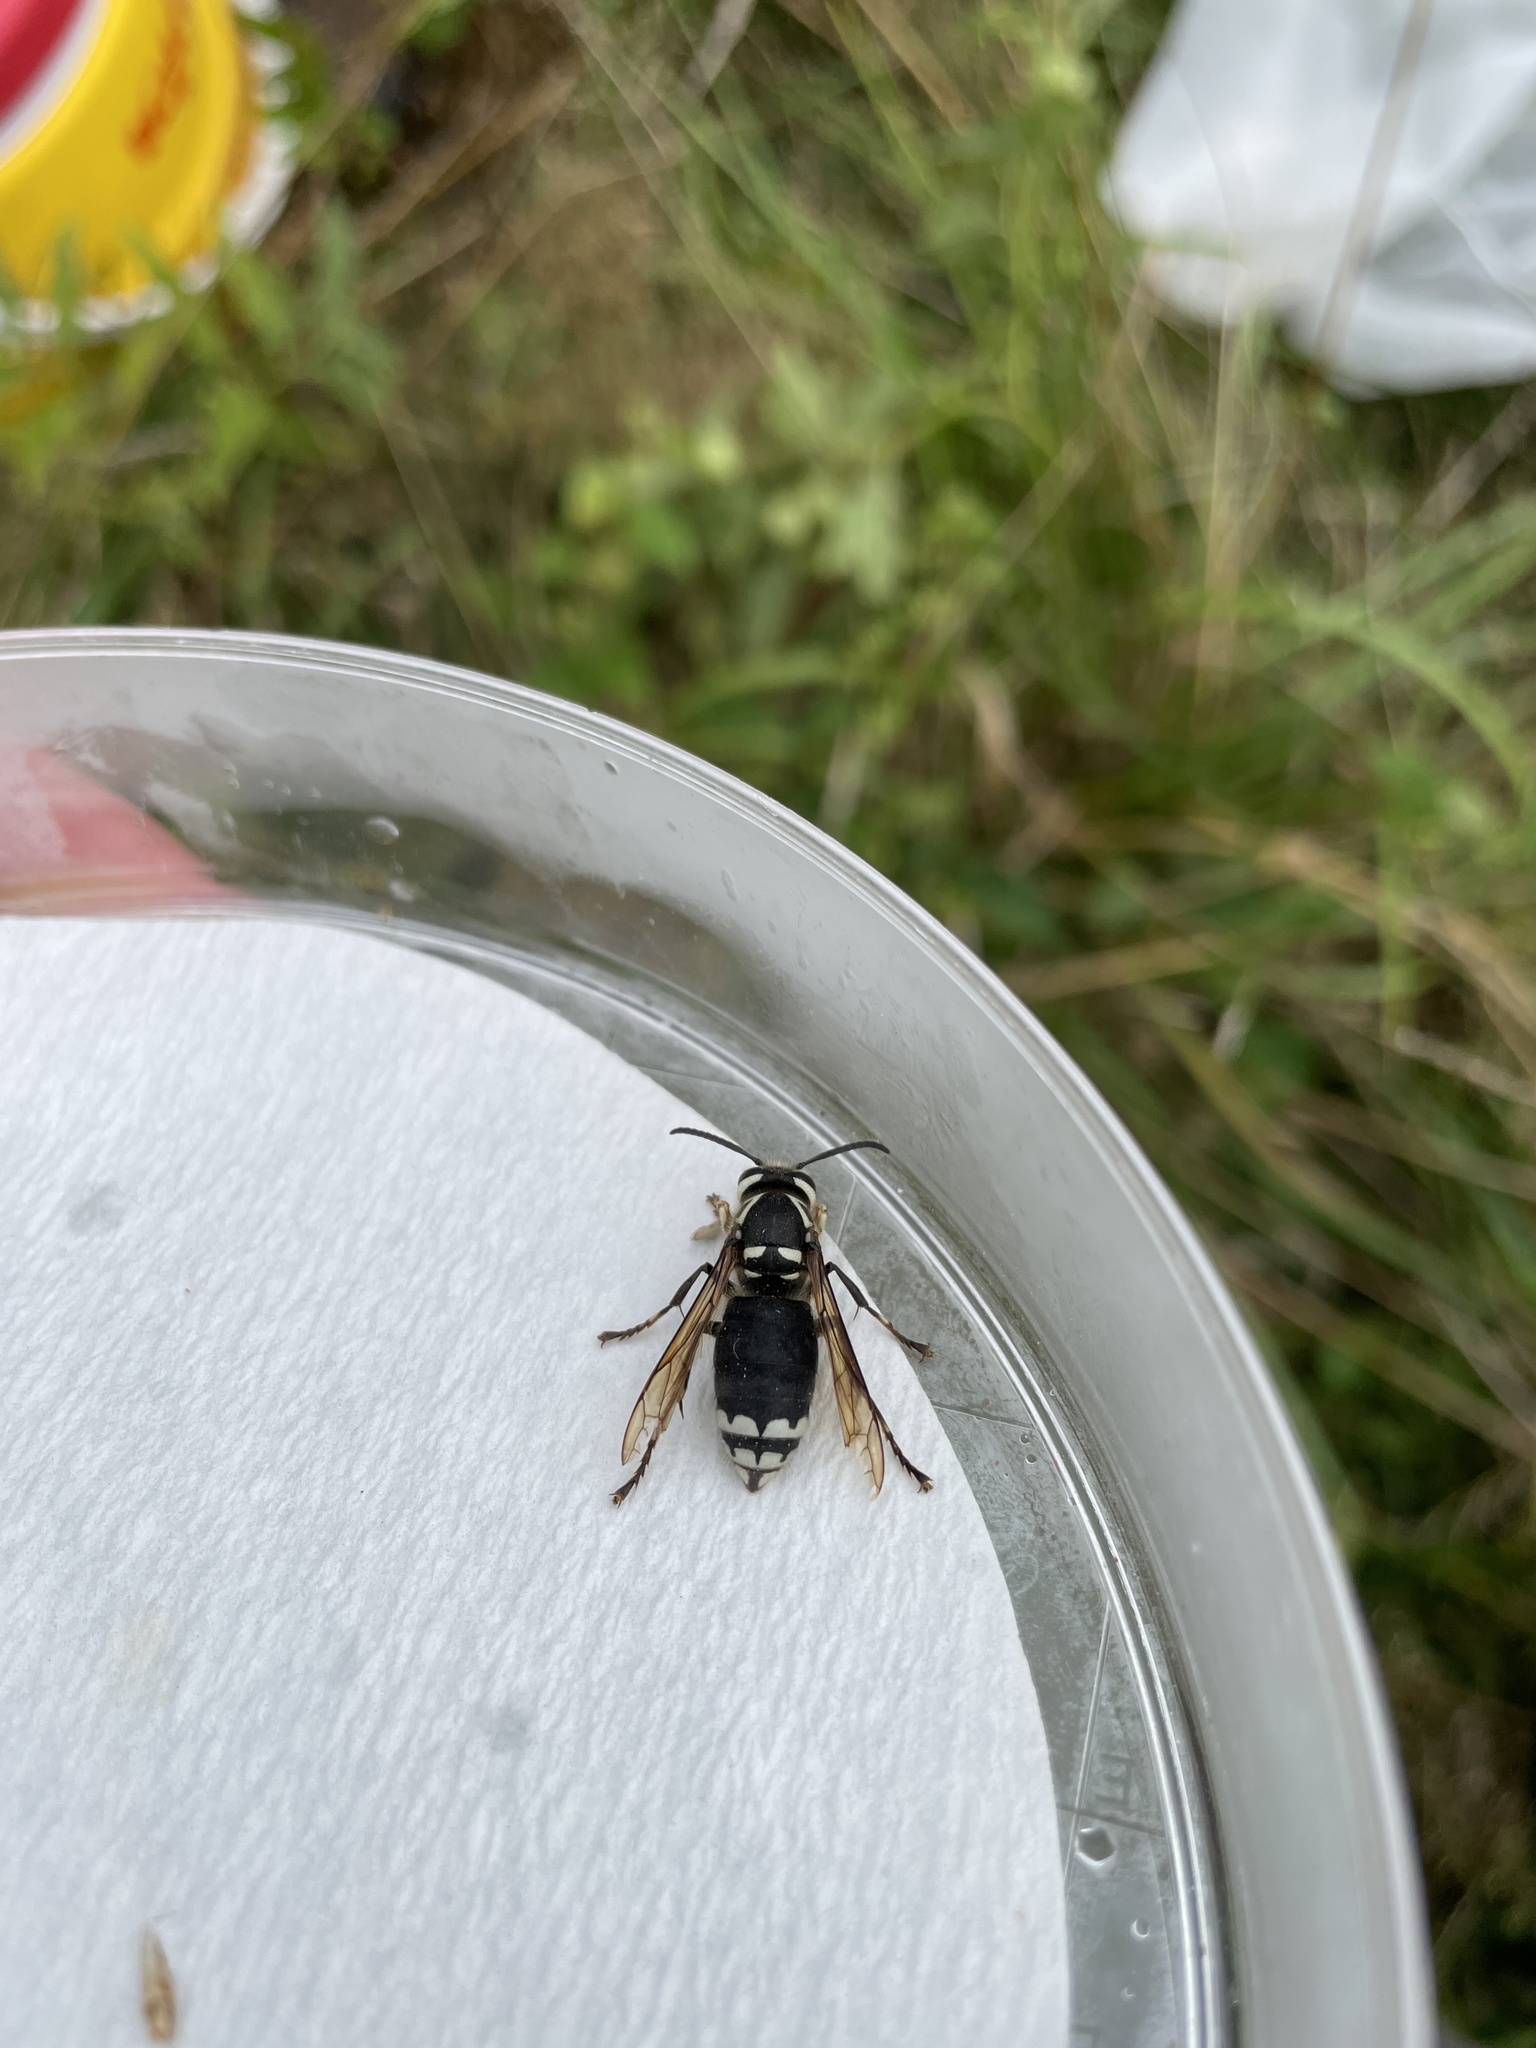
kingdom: Animalia
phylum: Arthropoda
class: Insecta
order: Hymenoptera
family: Vespidae
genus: Dolichovespula
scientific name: Dolichovespula maculata
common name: Bald-faced hornet
